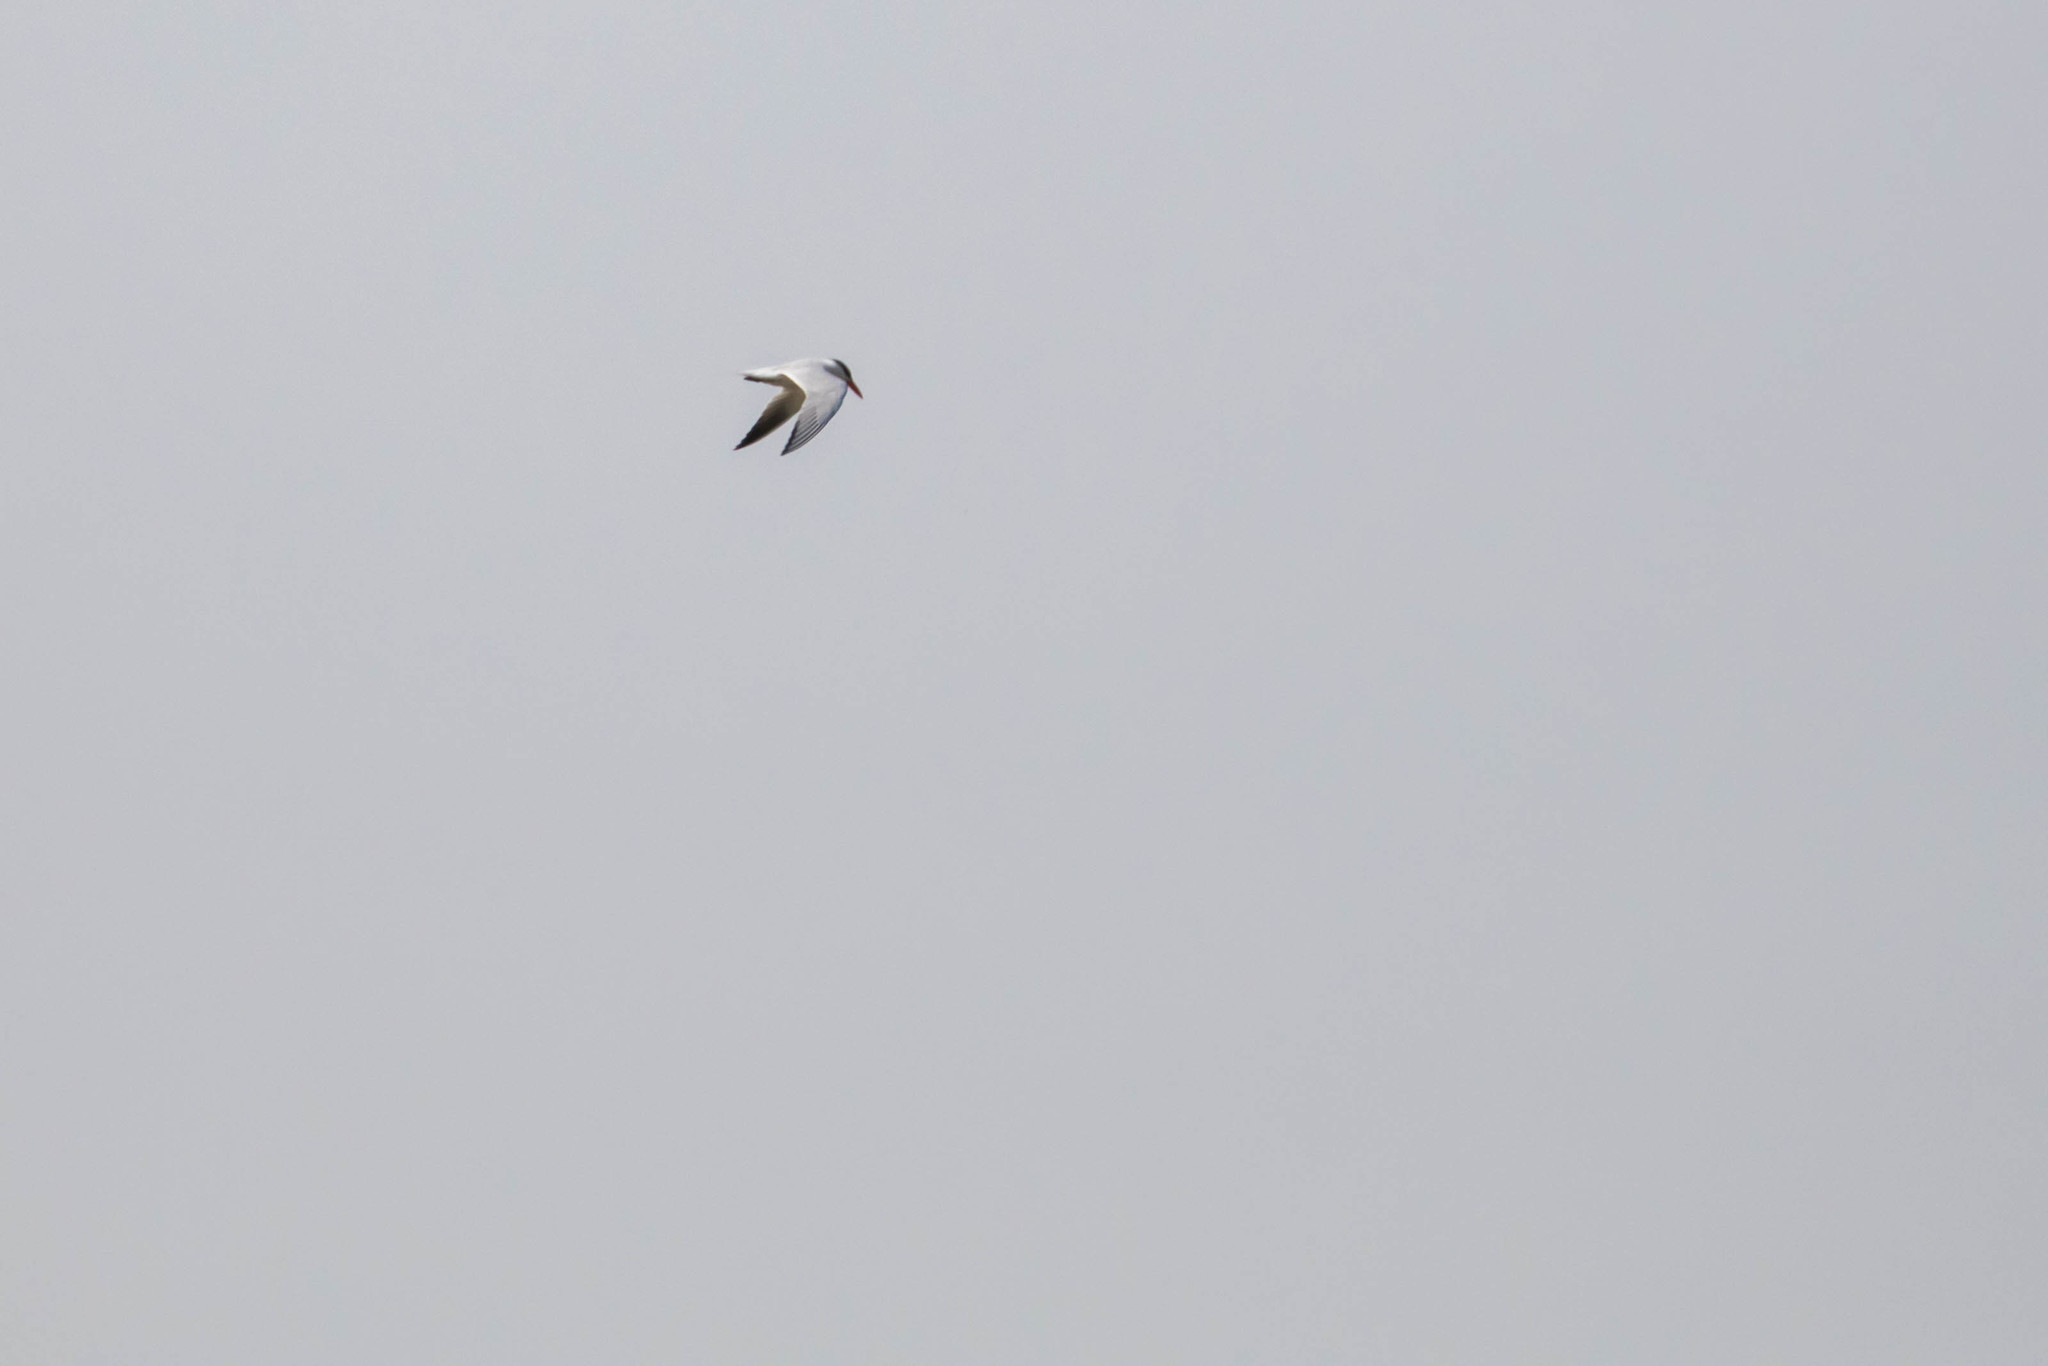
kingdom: Animalia
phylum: Chordata
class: Aves
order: Charadriiformes
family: Laridae
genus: Hydroprogne
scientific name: Hydroprogne caspia
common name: Caspian tern
